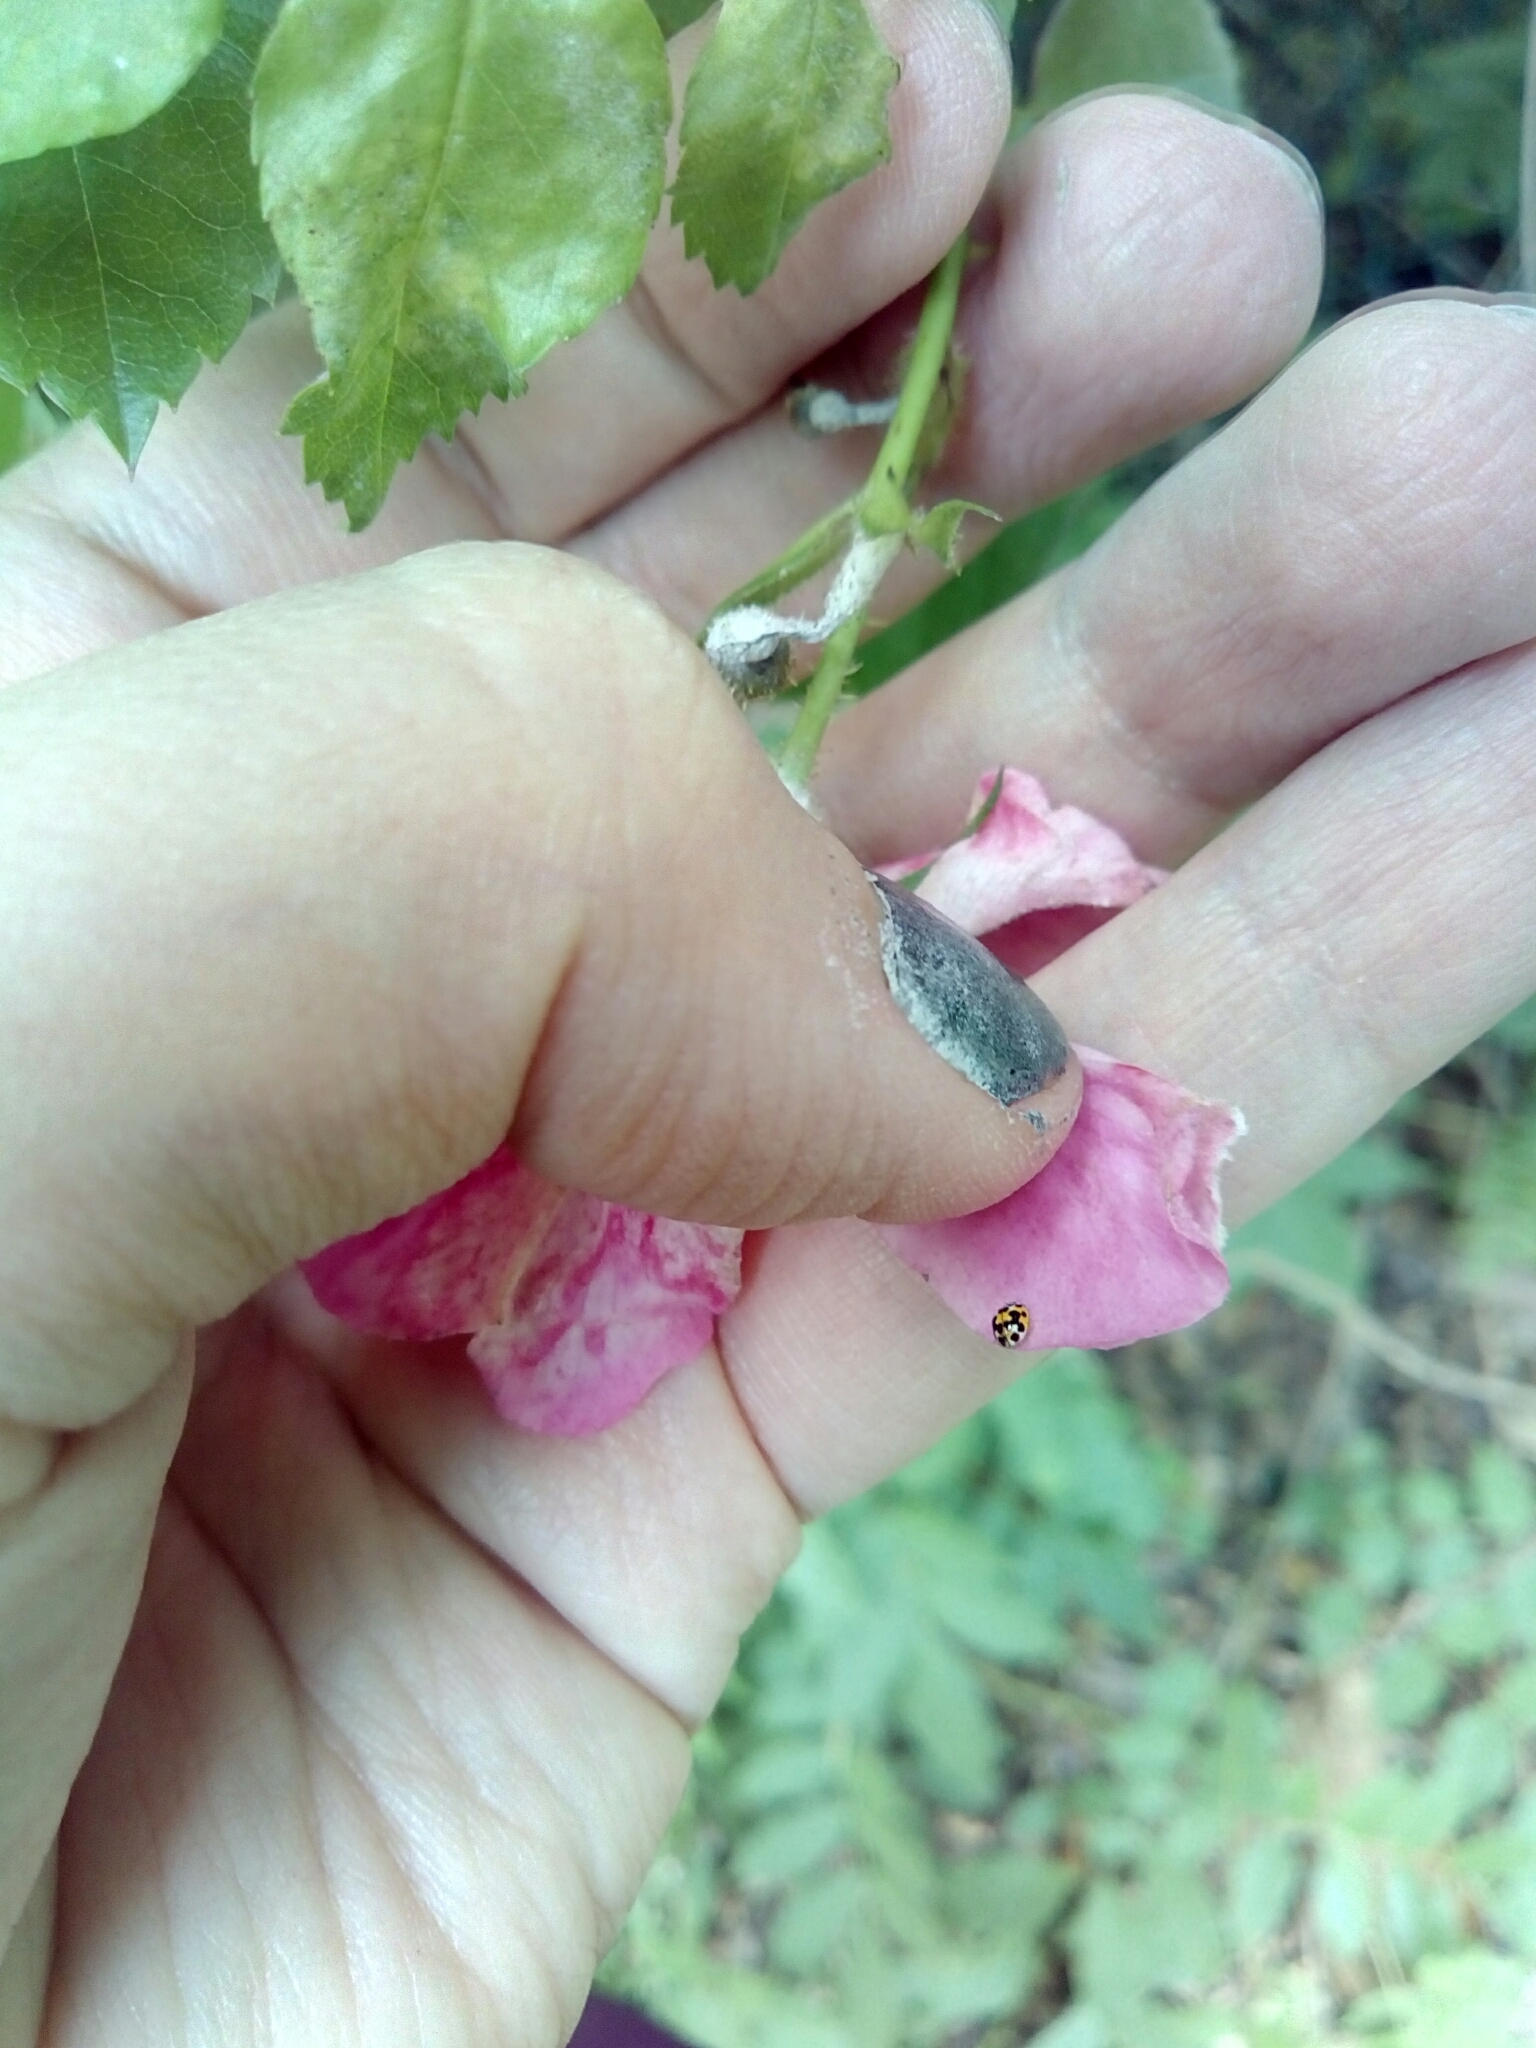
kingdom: Animalia
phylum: Arthropoda
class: Insecta
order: Coleoptera
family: Coccinellidae
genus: Psyllobora
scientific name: Psyllobora vigintimaculata
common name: Ladybird beetle
